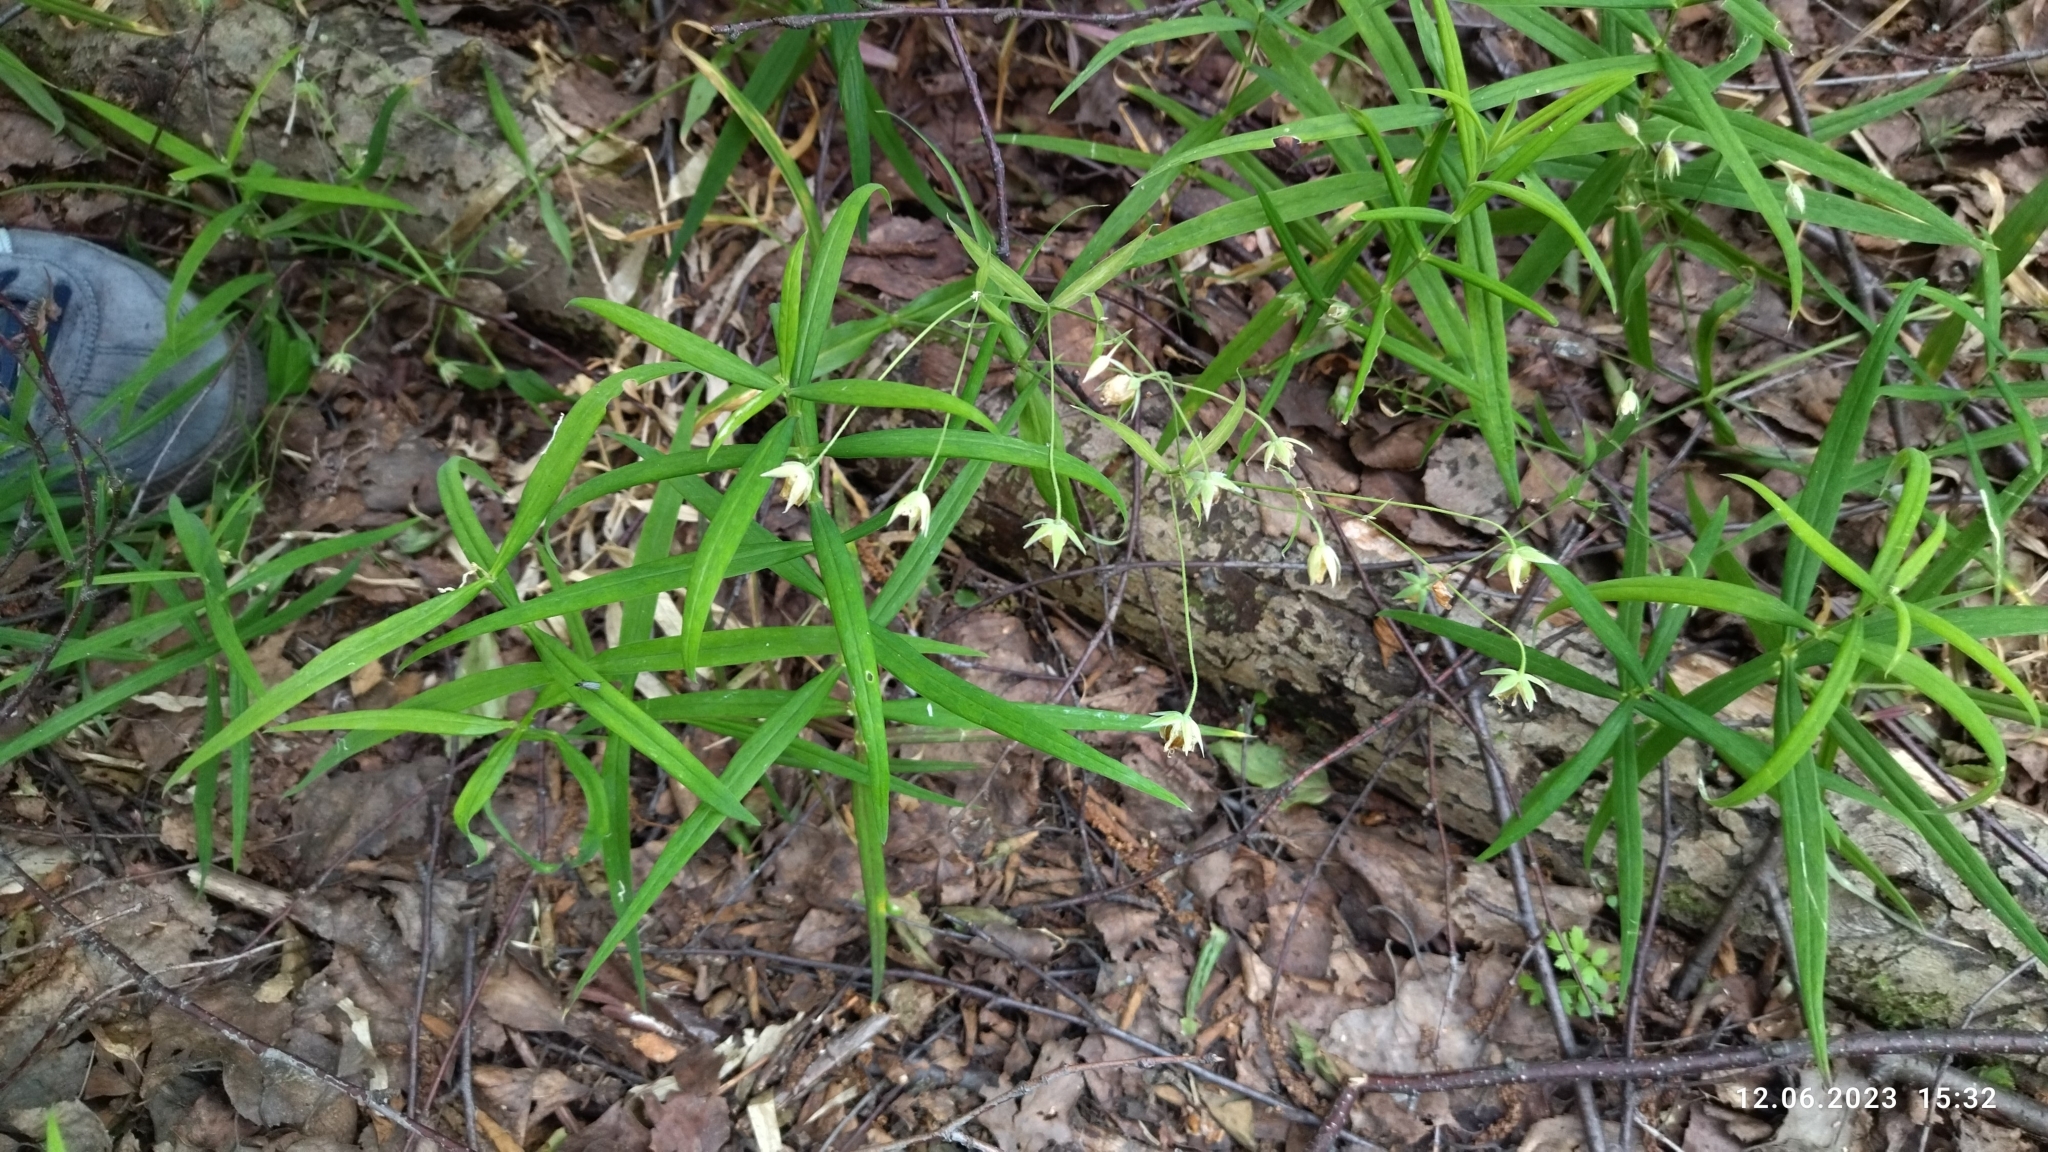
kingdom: Plantae
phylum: Tracheophyta
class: Magnoliopsida
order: Caryophyllales
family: Caryophyllaceae
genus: Rabelera
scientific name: Rabelera holostea
